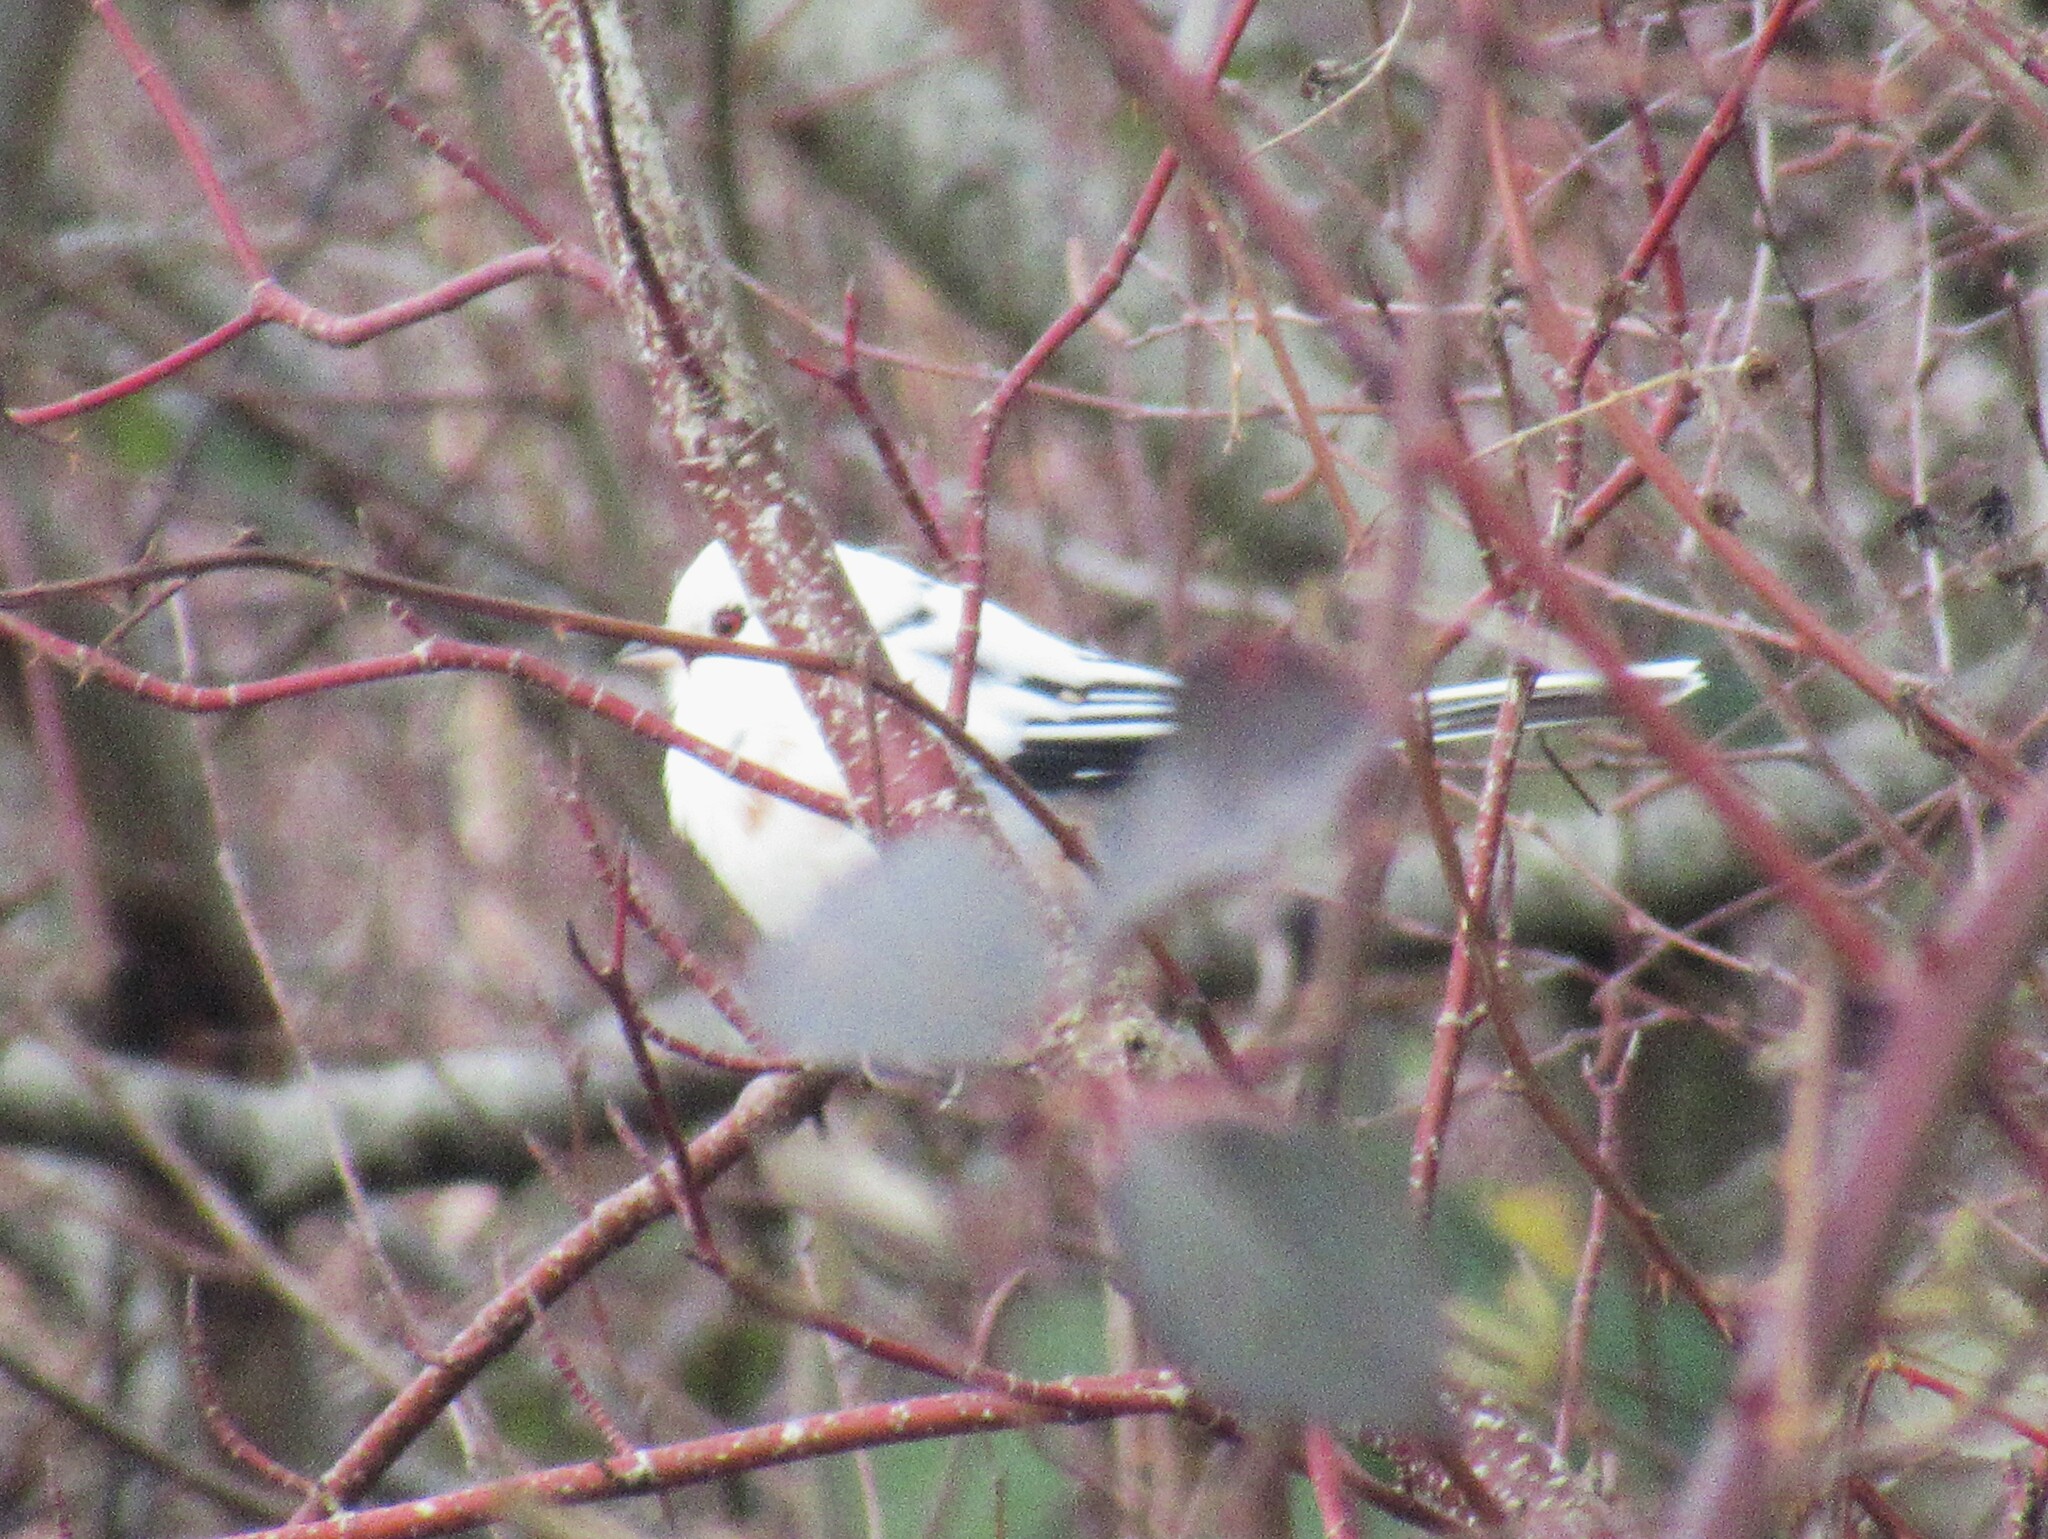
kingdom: Animalia
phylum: Chordata
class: Aves
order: Passeriformes
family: Passerellidae
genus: Pipilo
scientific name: Pipilo maculatus
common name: Spotted towhee
